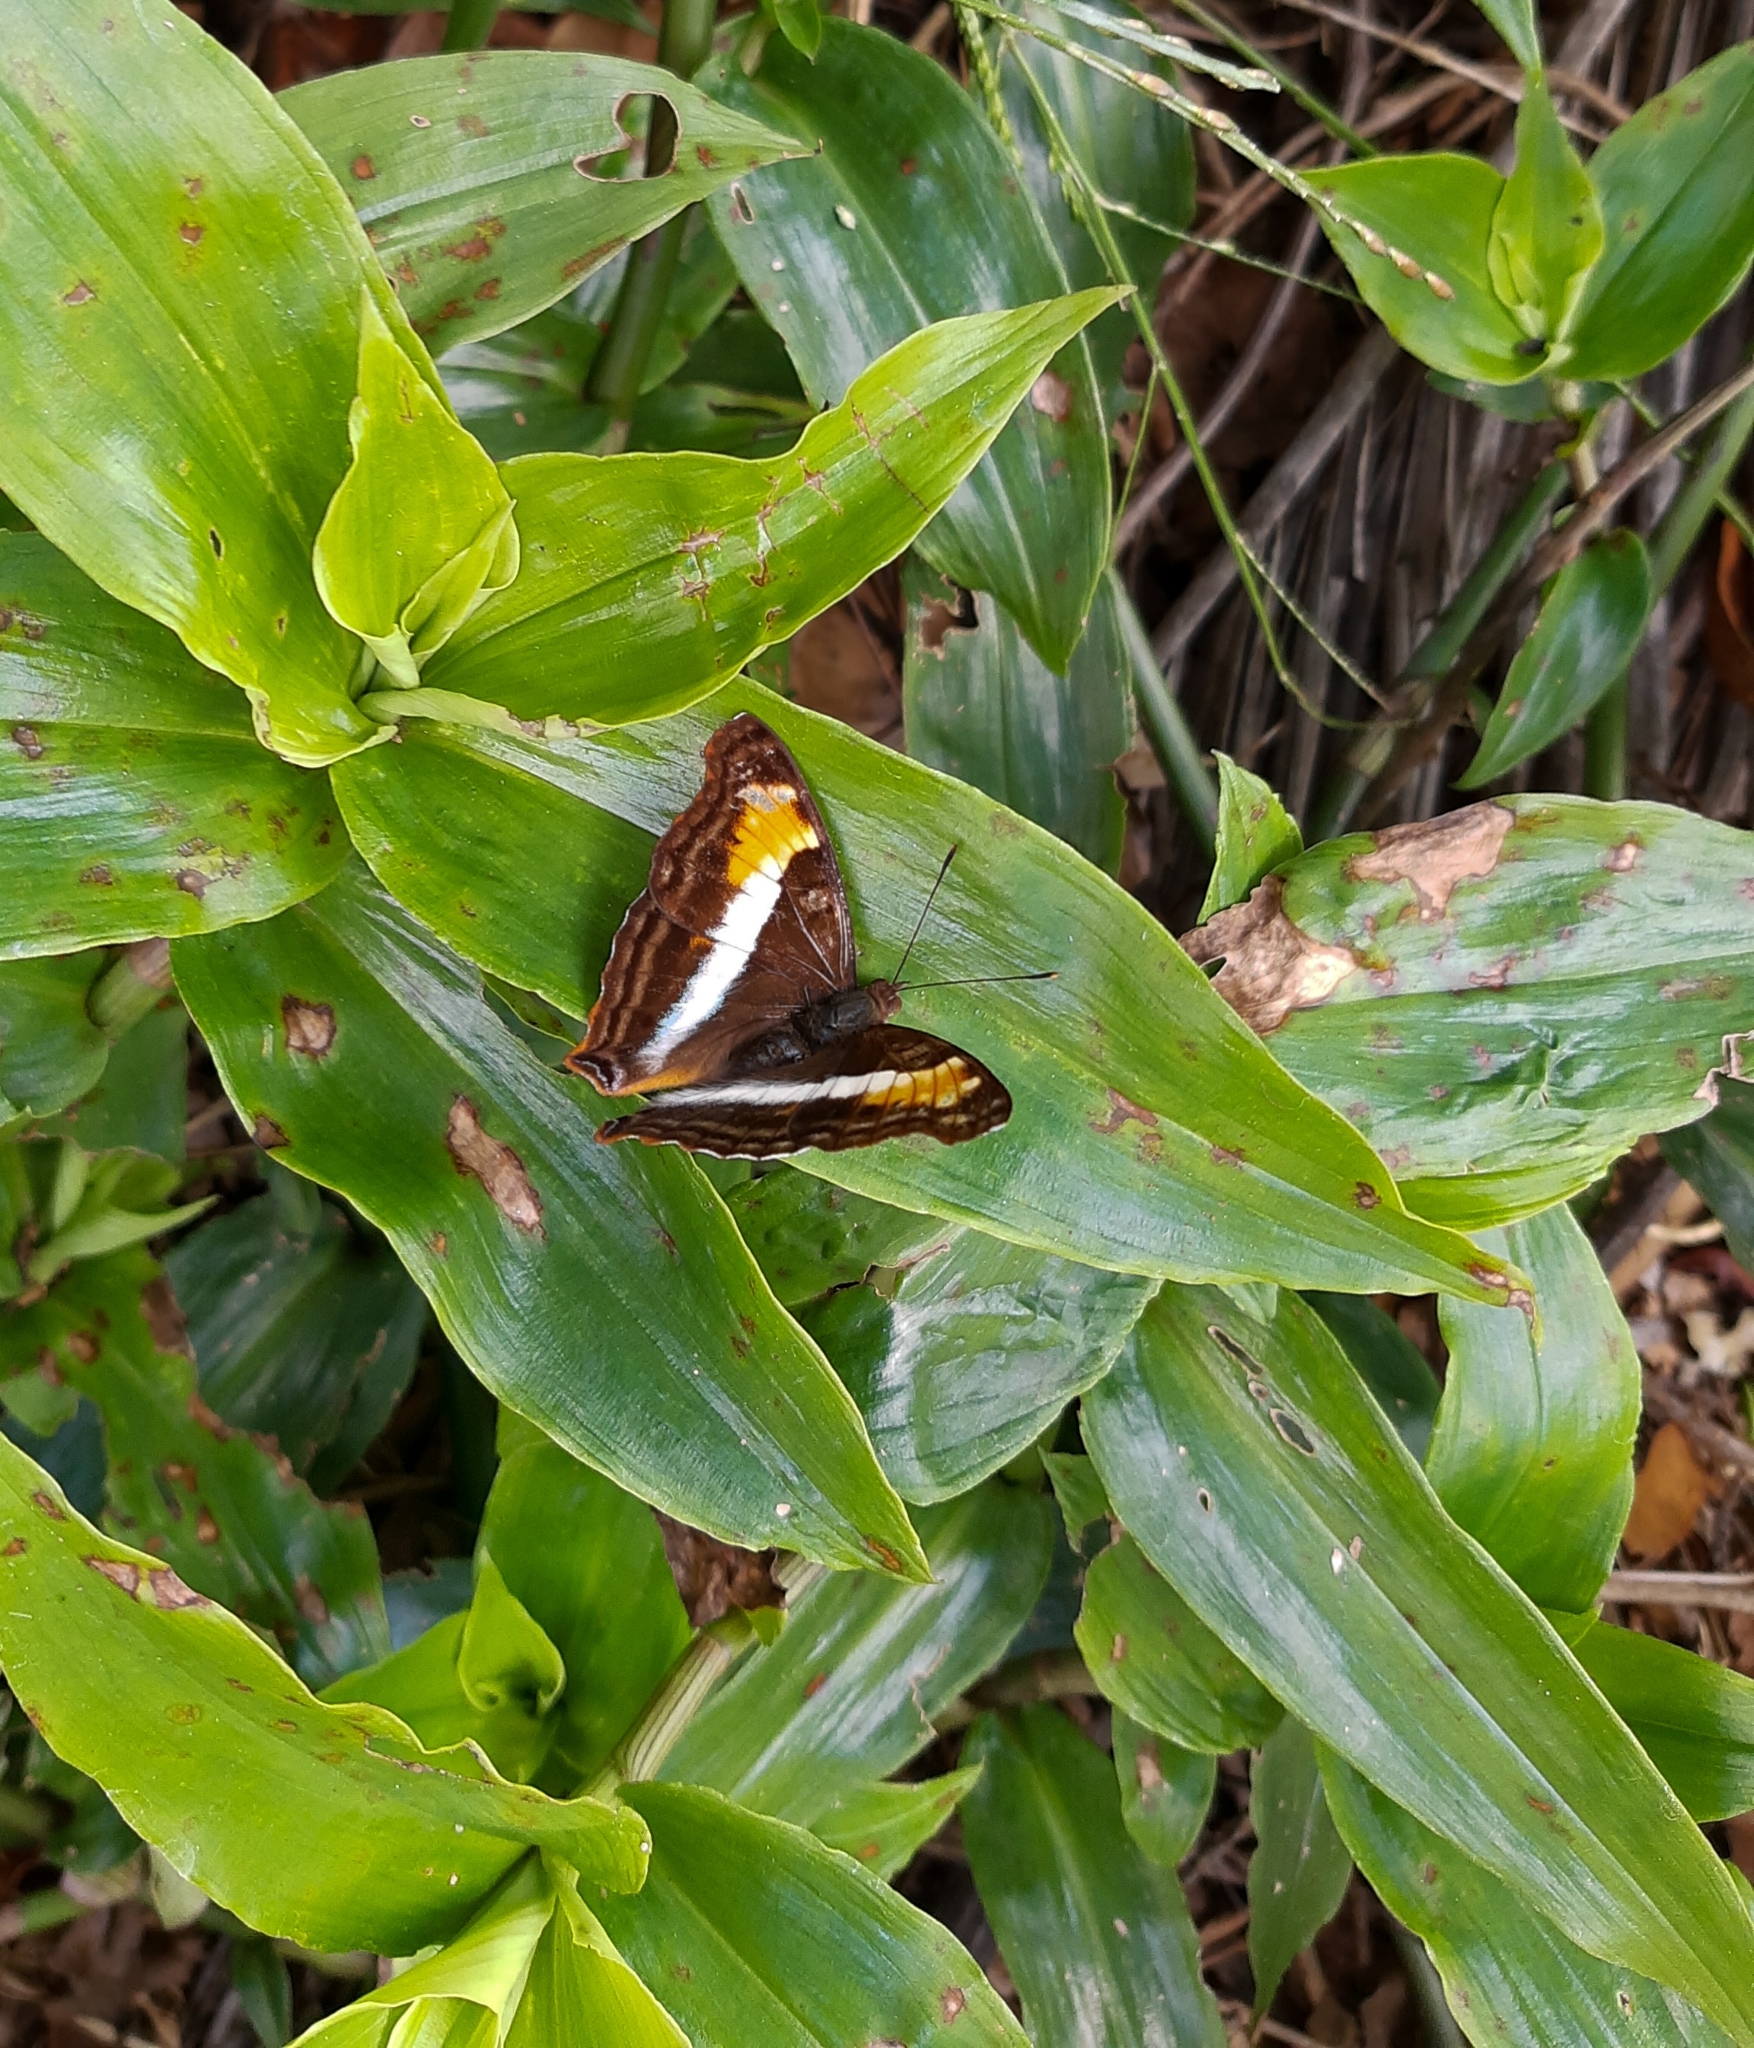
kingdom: Animalia
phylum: Arthropoda
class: Insecta
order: Lepidoptera
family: Nymphalidae
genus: Doxocopa
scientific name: Doxocopa laurentia
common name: Turquoise emperor
